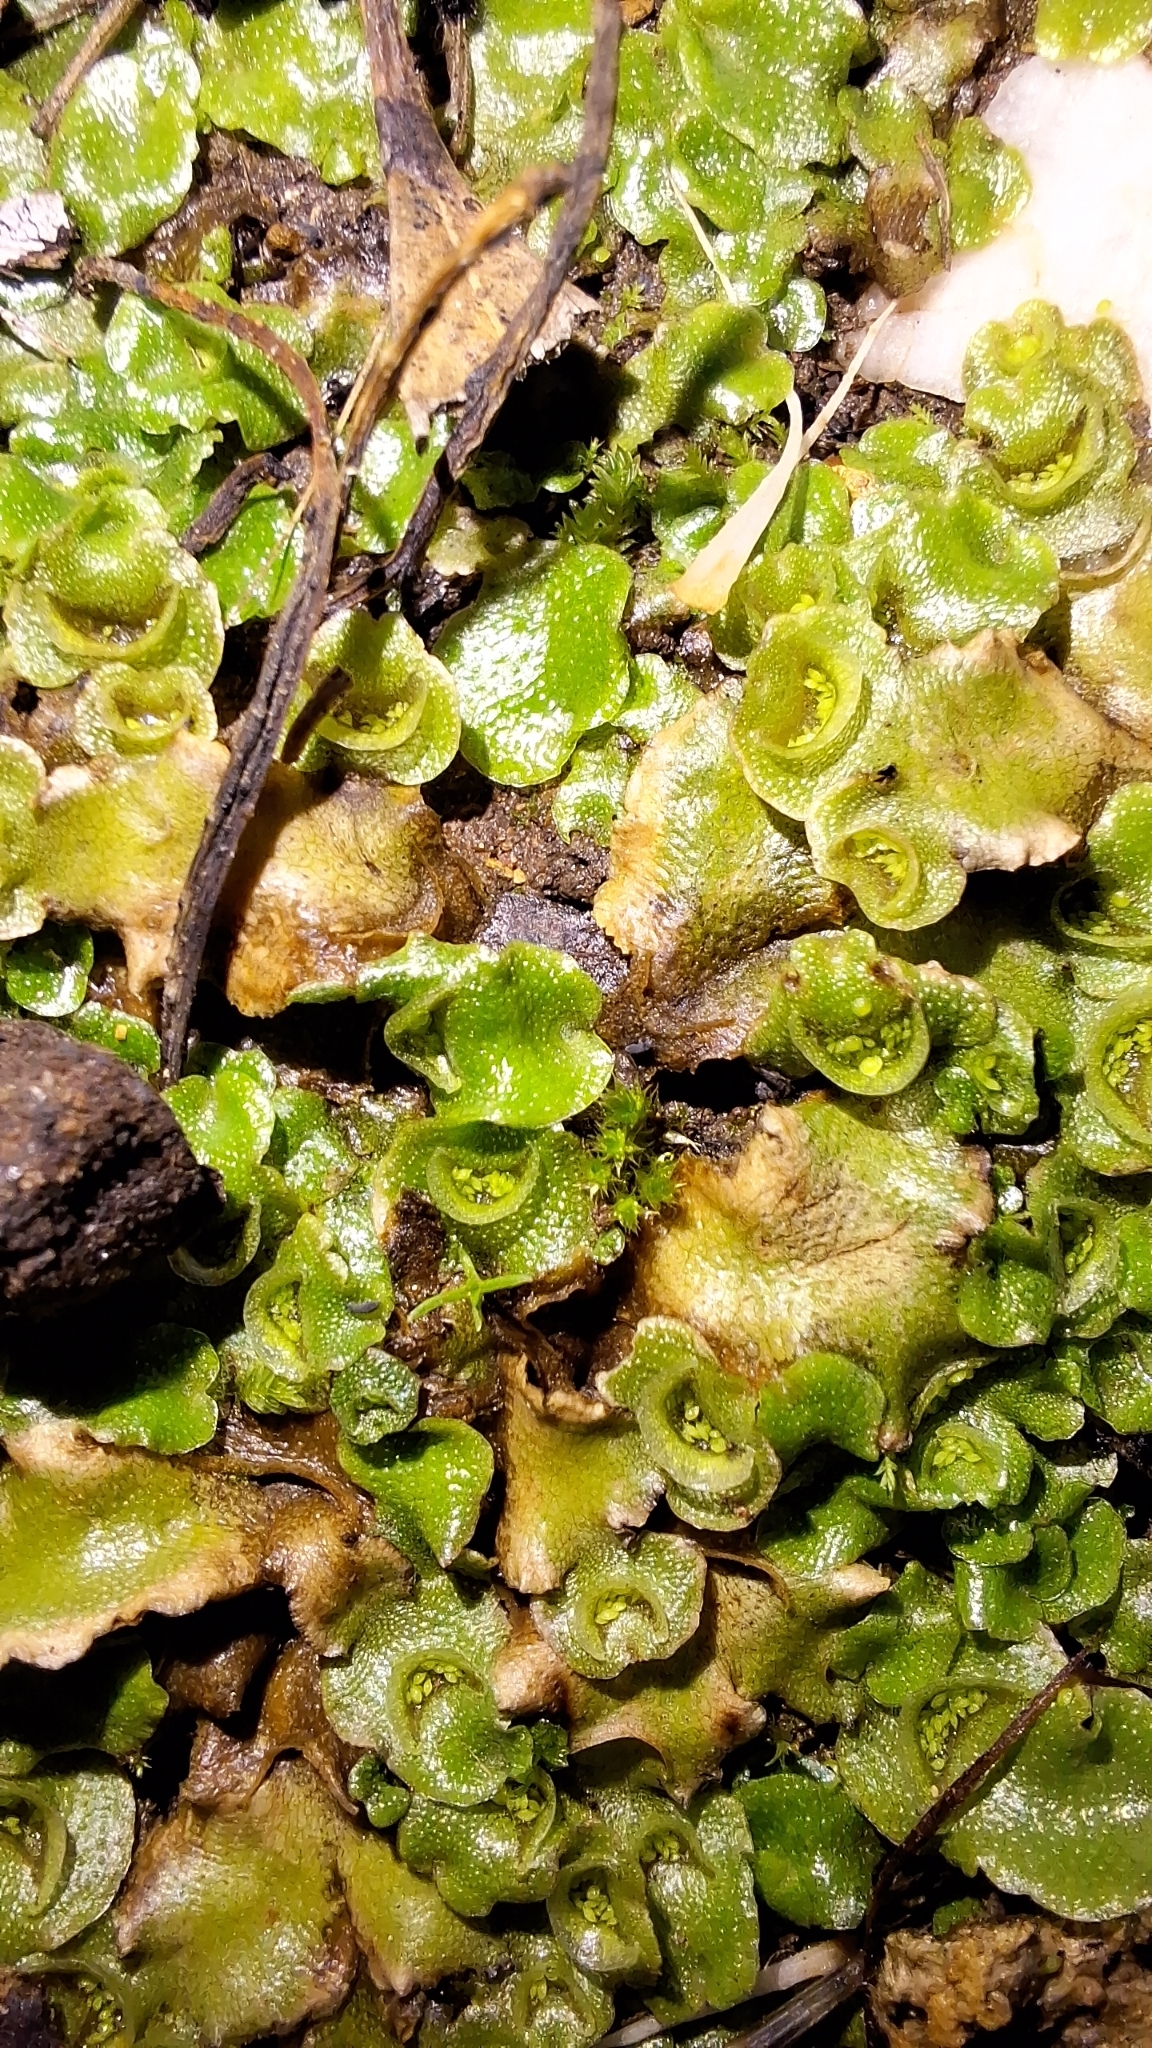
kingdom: Plantae
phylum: Marchantiophyta
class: Marchantiopsida
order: Lunulariales
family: Lunulariaceae
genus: Lunularia
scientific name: Lunularia cruciata
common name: Crescent-cup liverwort
